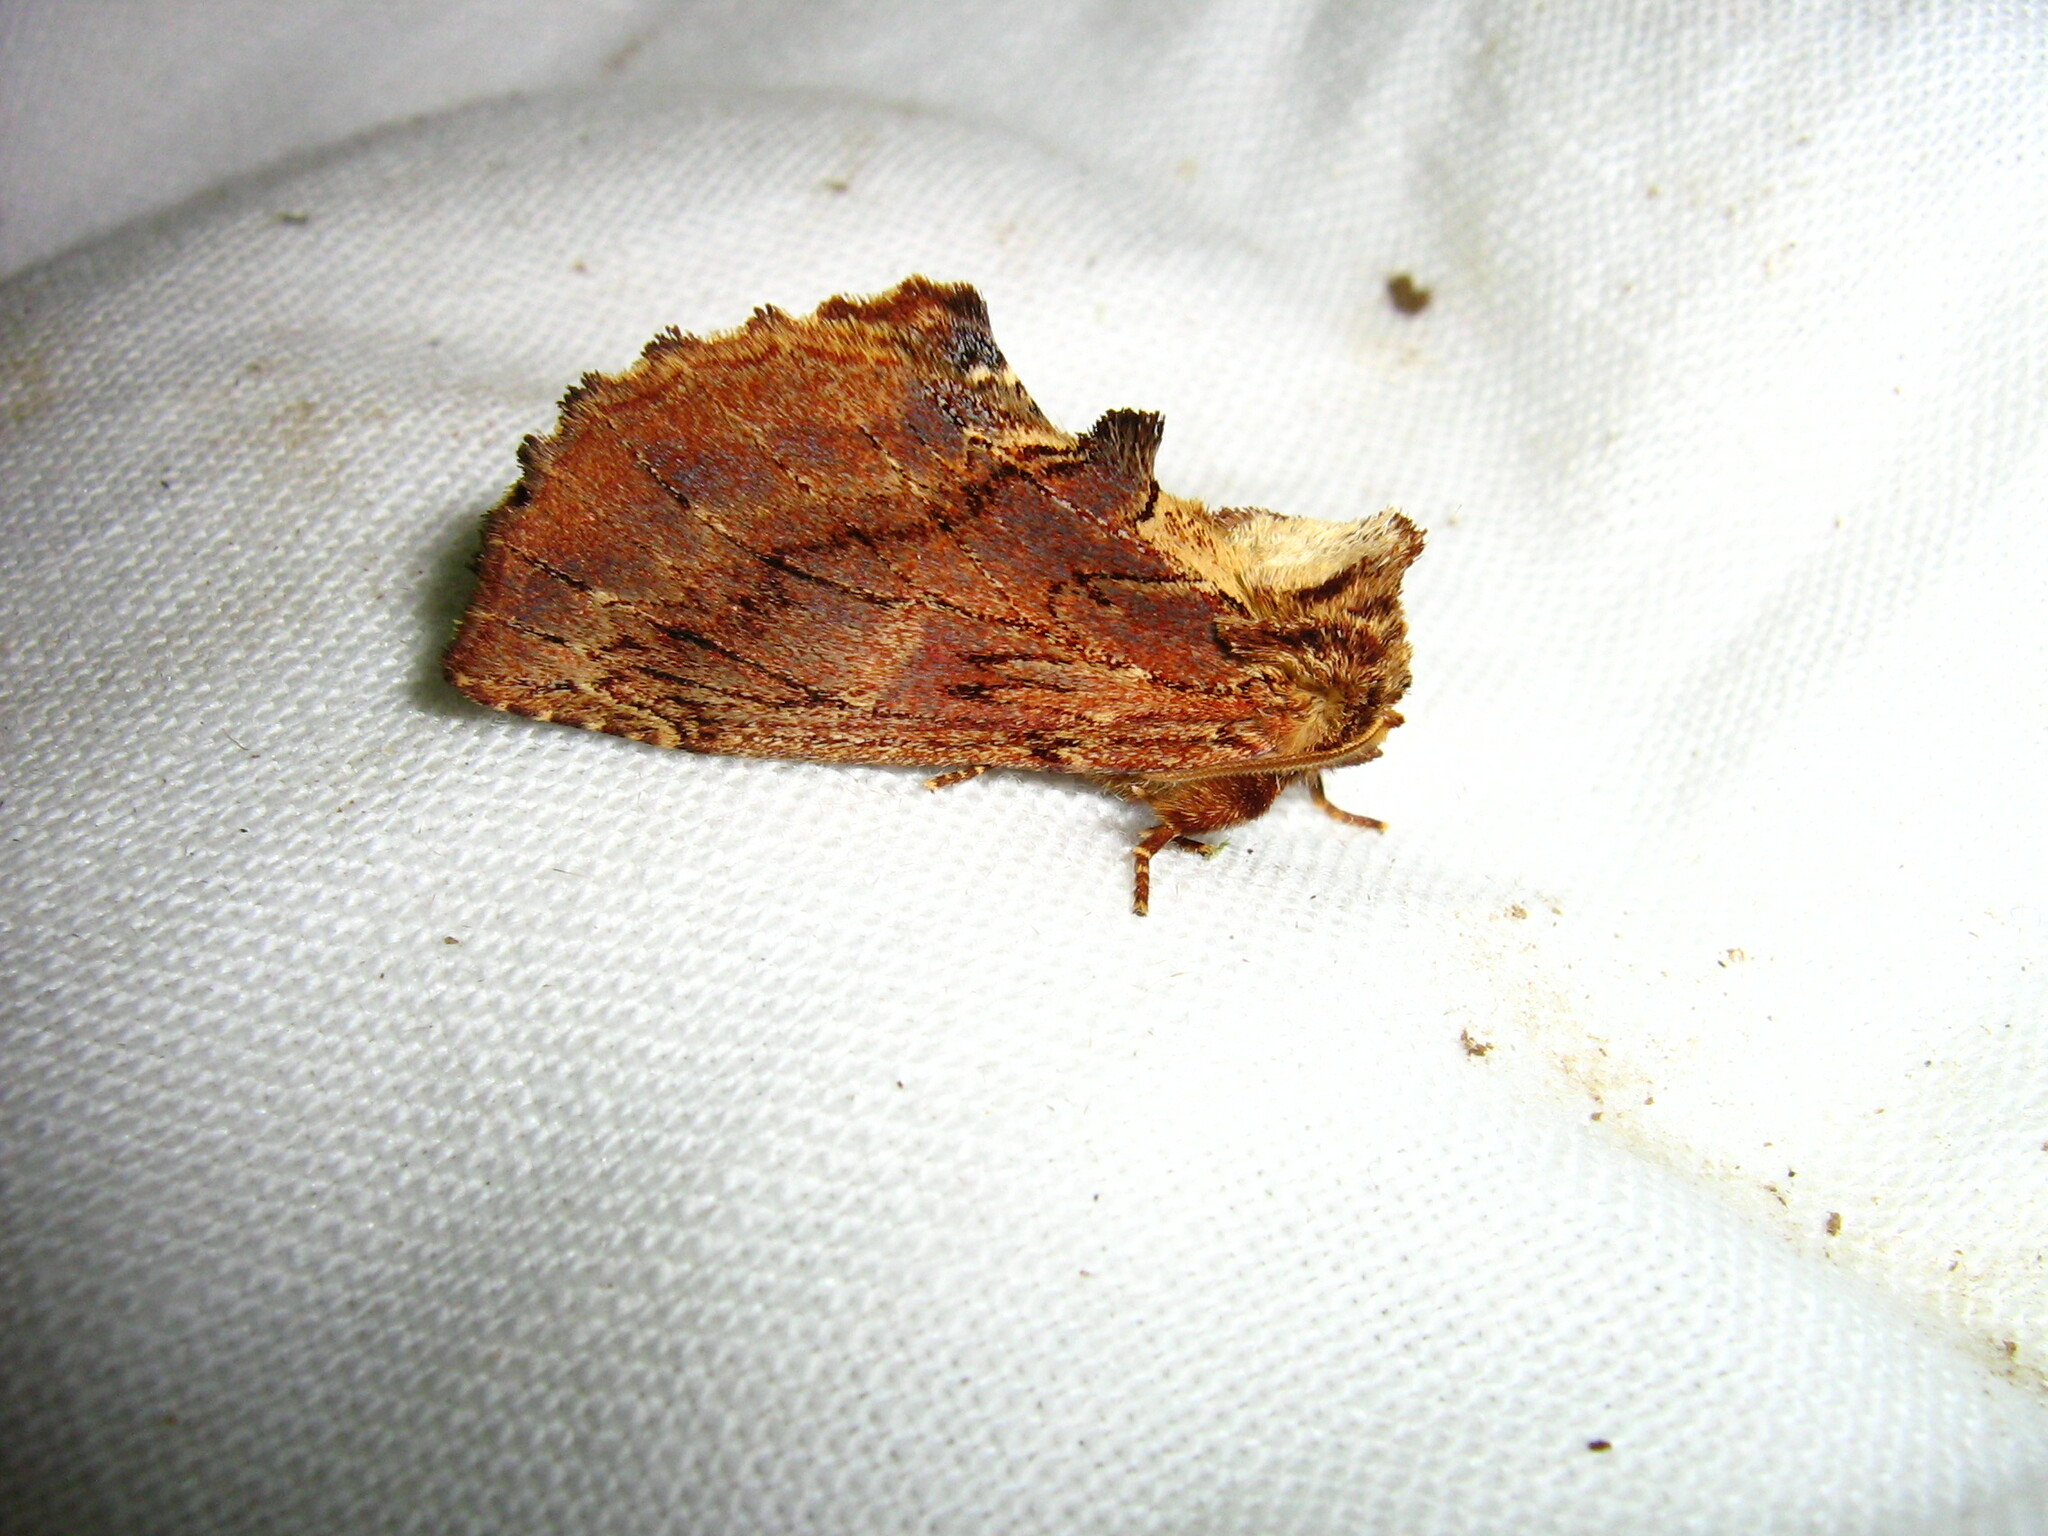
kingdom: Animalia
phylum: Arthropoda
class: Insecta
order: Lepidoptera
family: Notodontidae
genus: Ptilodon
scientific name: Ptilodon capucina
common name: Coxcomb prominent
